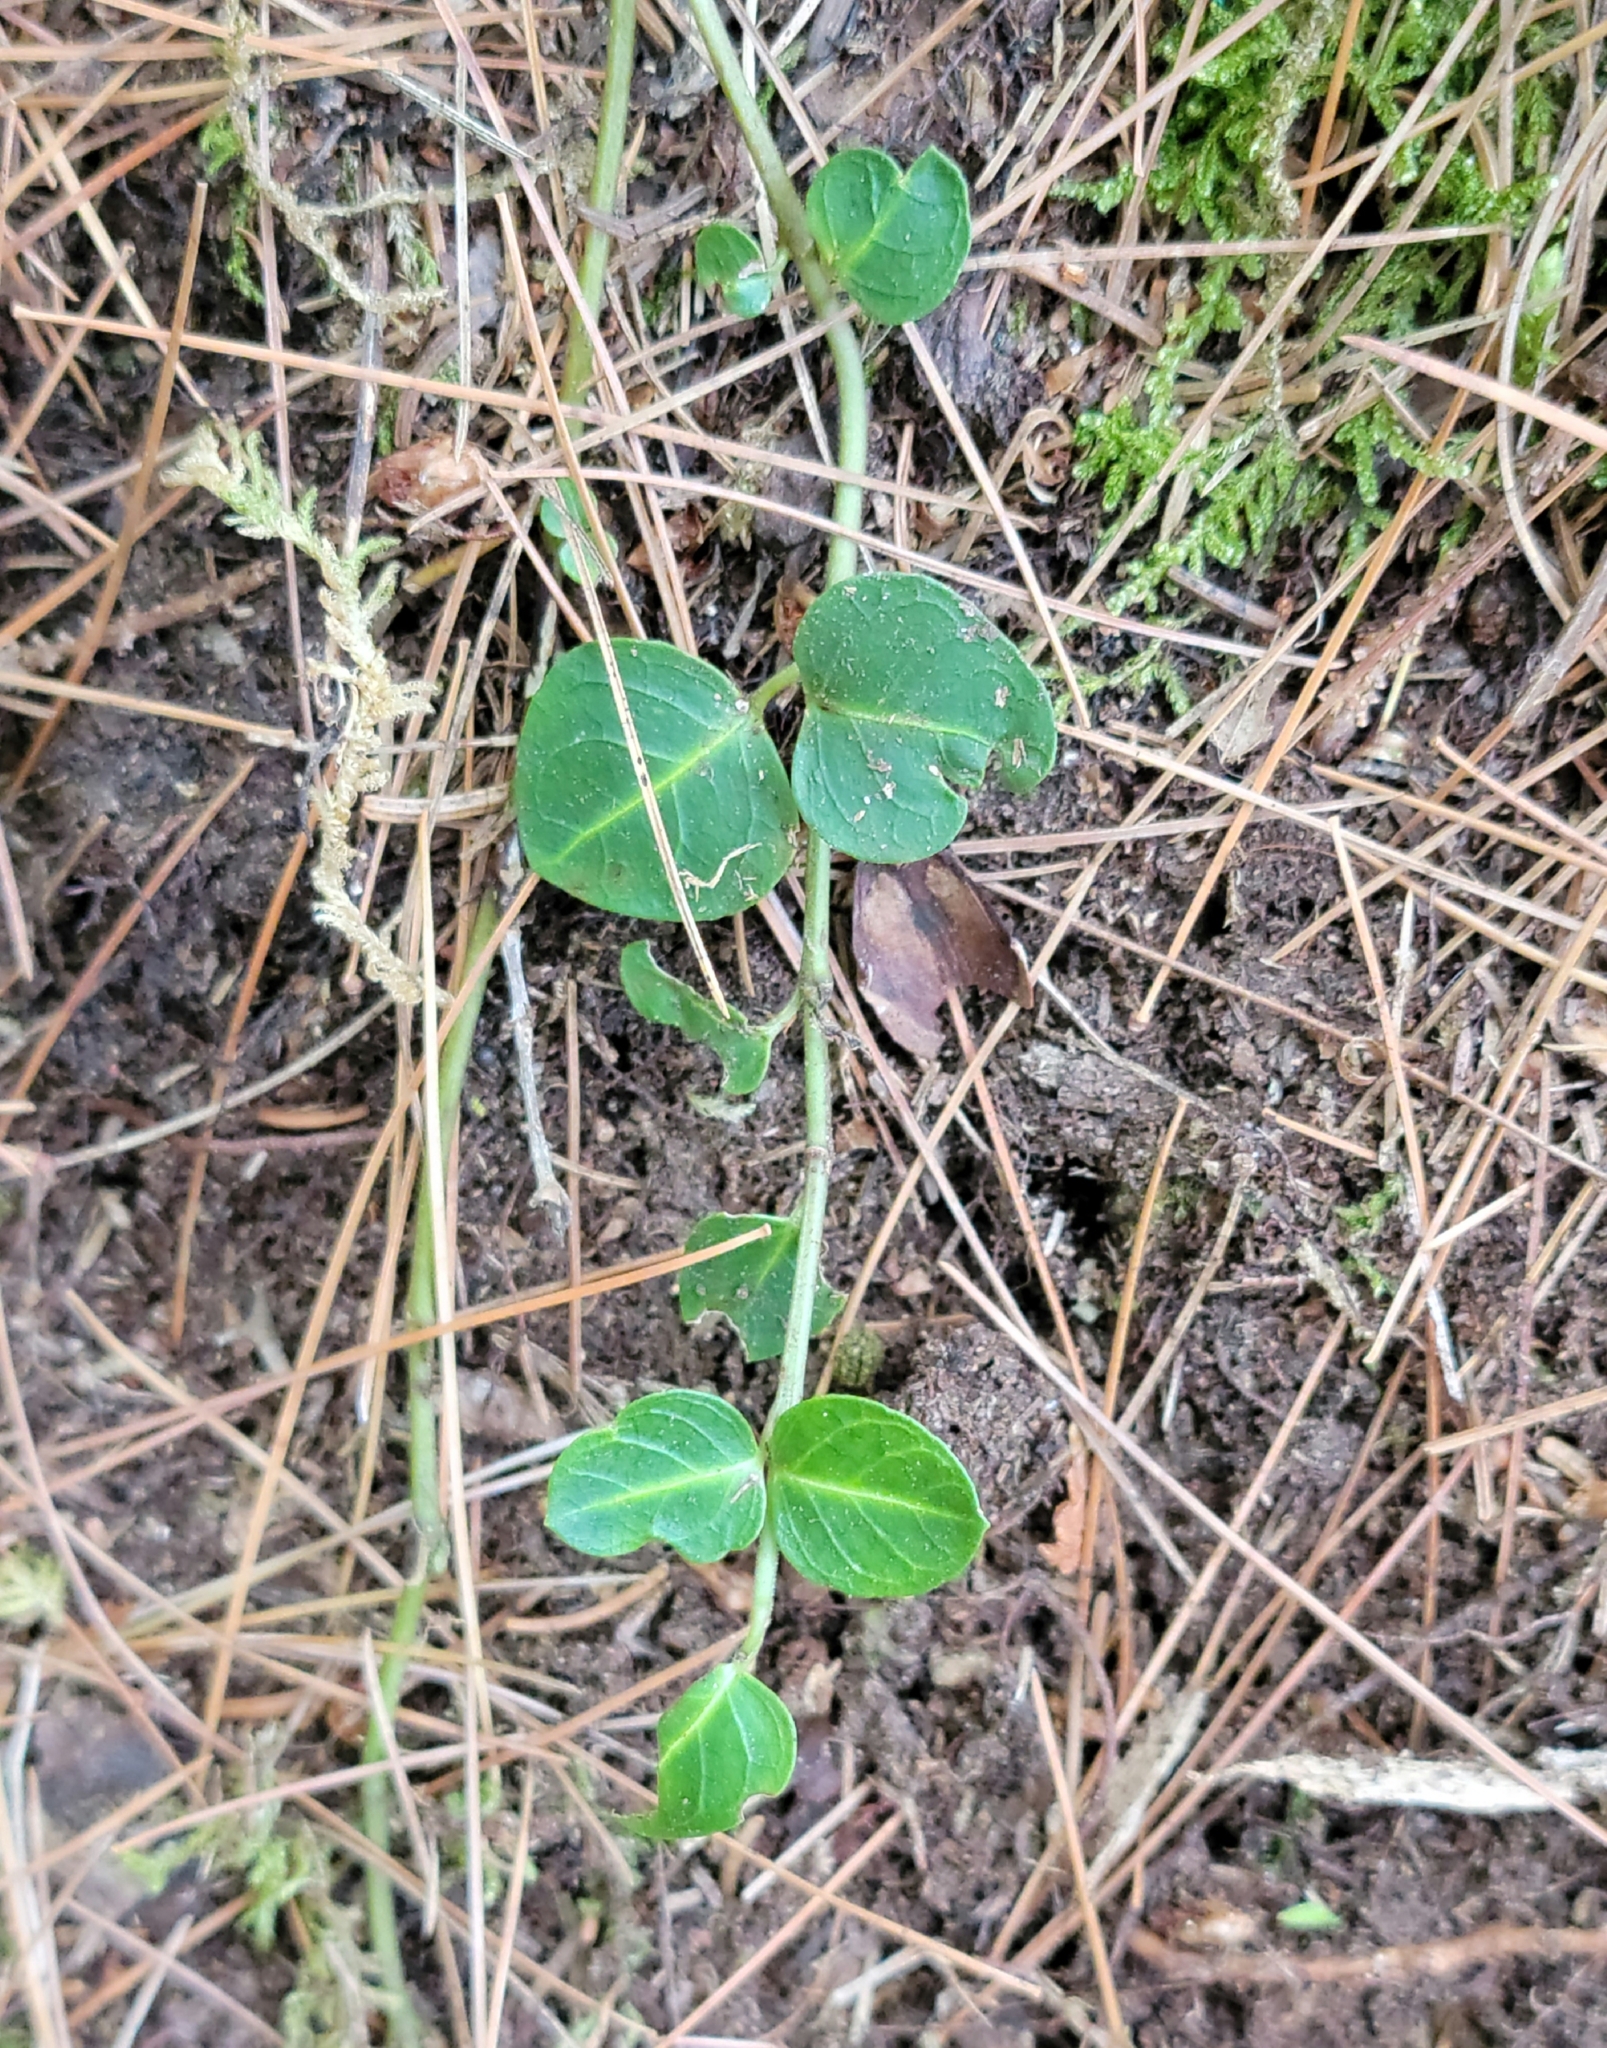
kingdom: Plantae
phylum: Tracheophyta
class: Magnoliopsida
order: Gentianales
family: Rubiaceae
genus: Mitchella
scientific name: Mitchella repens
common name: Partridge-berry
